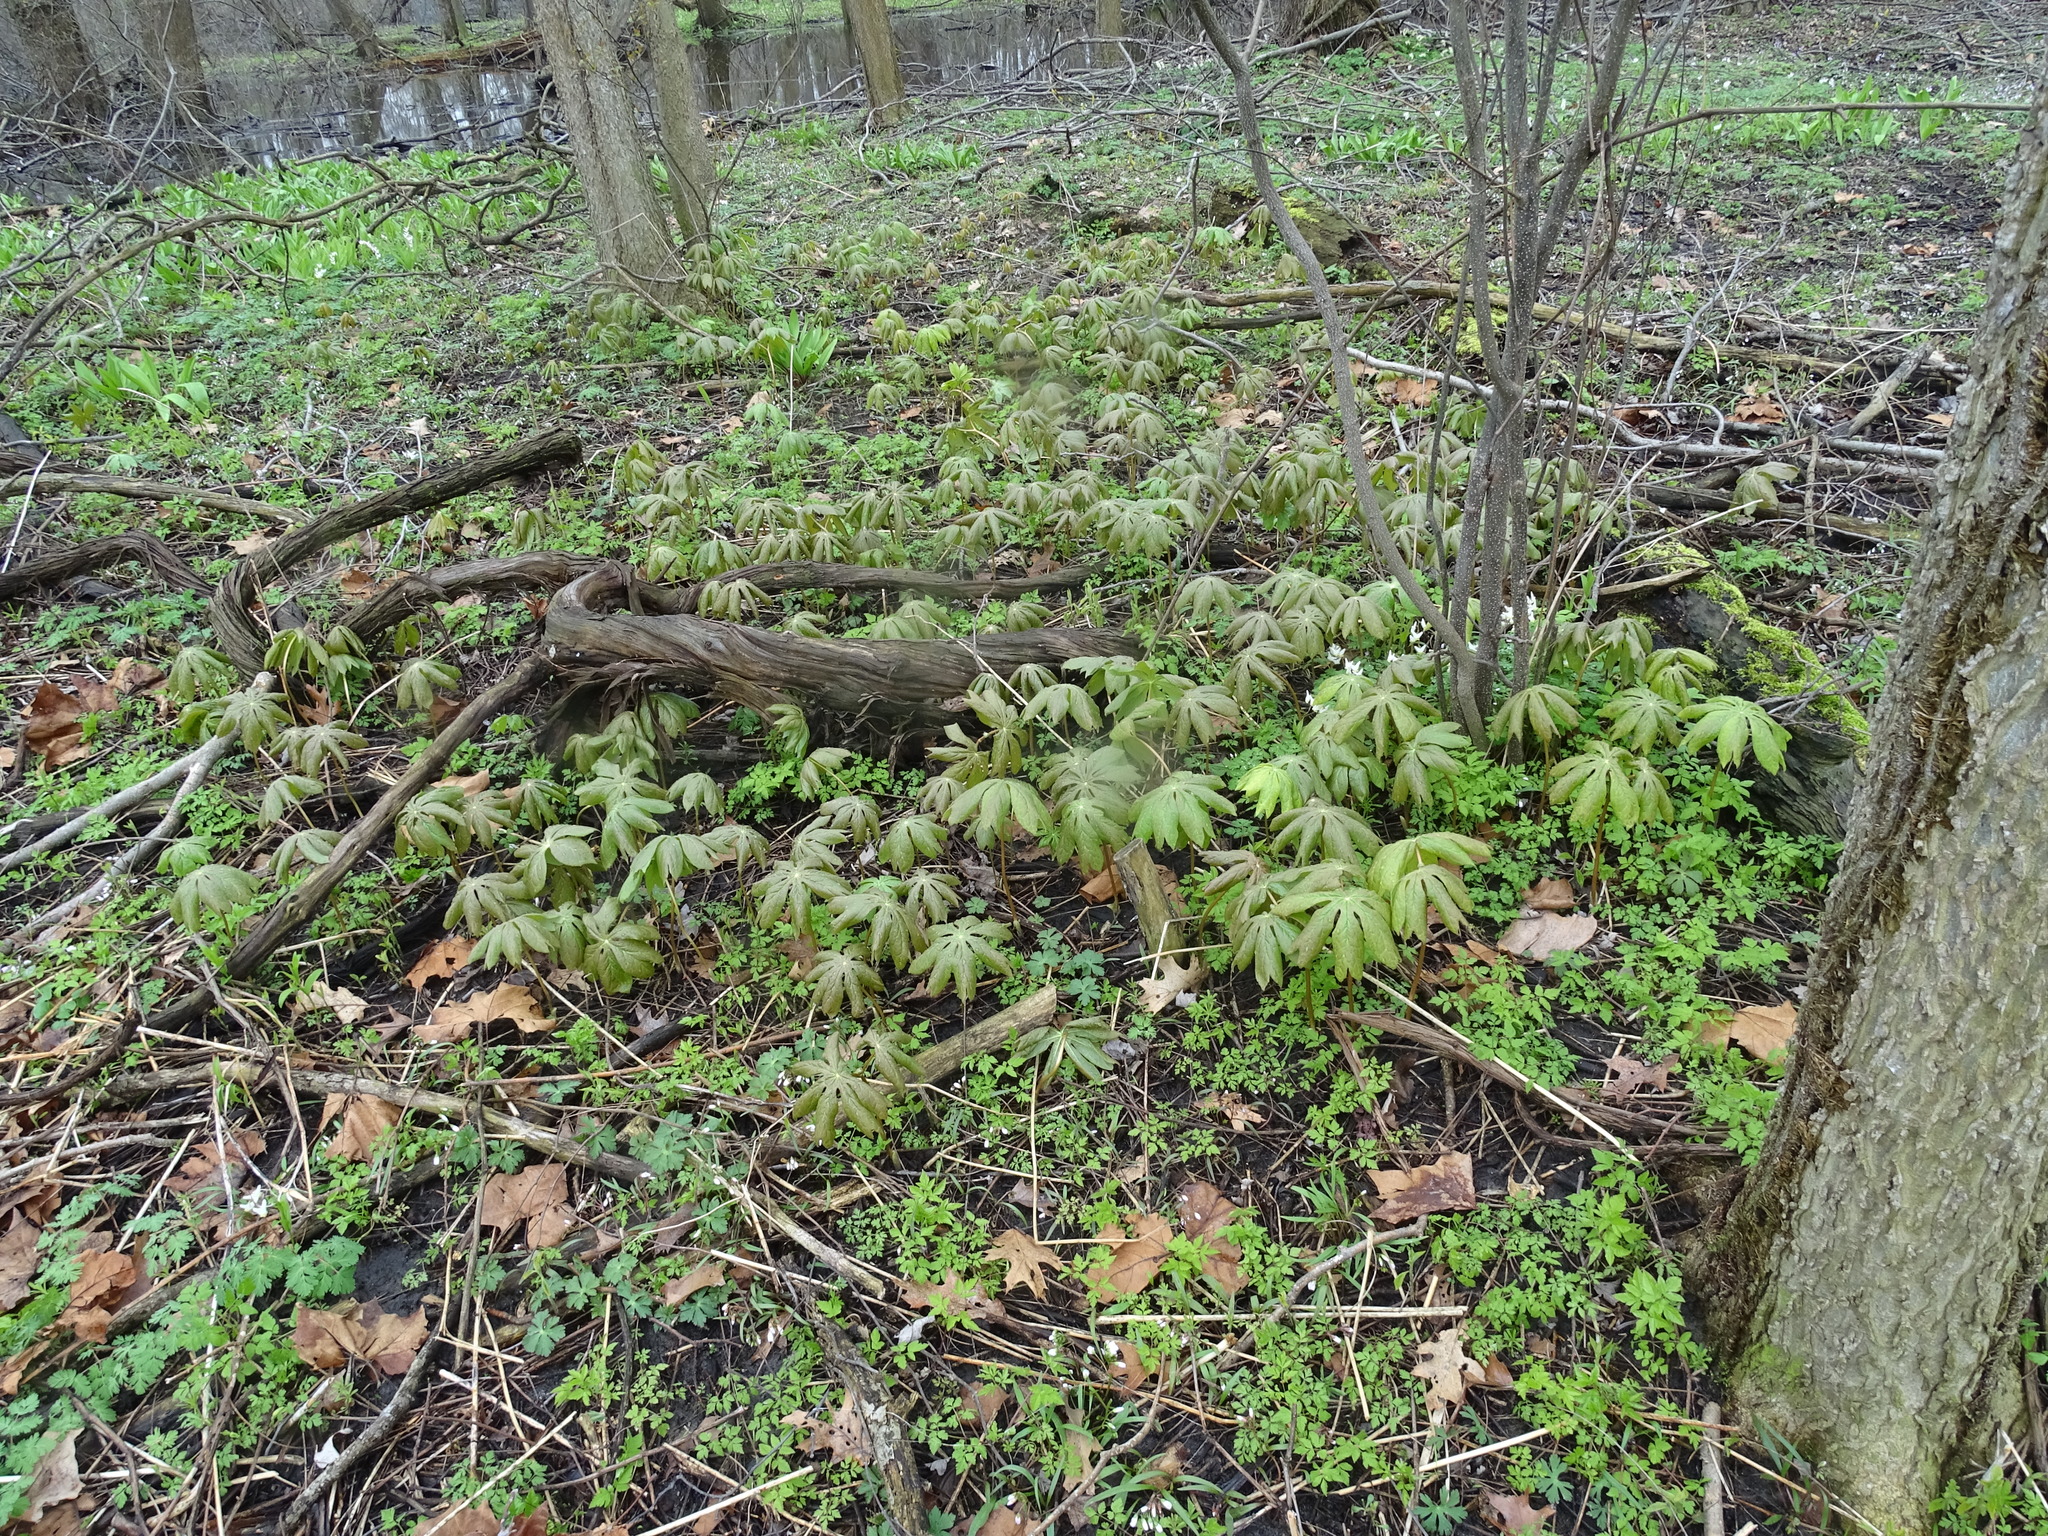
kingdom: Plantae
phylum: Tracheophyta
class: Magnoliopsida
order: Ranunculales
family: Berberidaceae
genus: Podophyllum
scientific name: Podophyllum peltatum
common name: Wild mandrake
